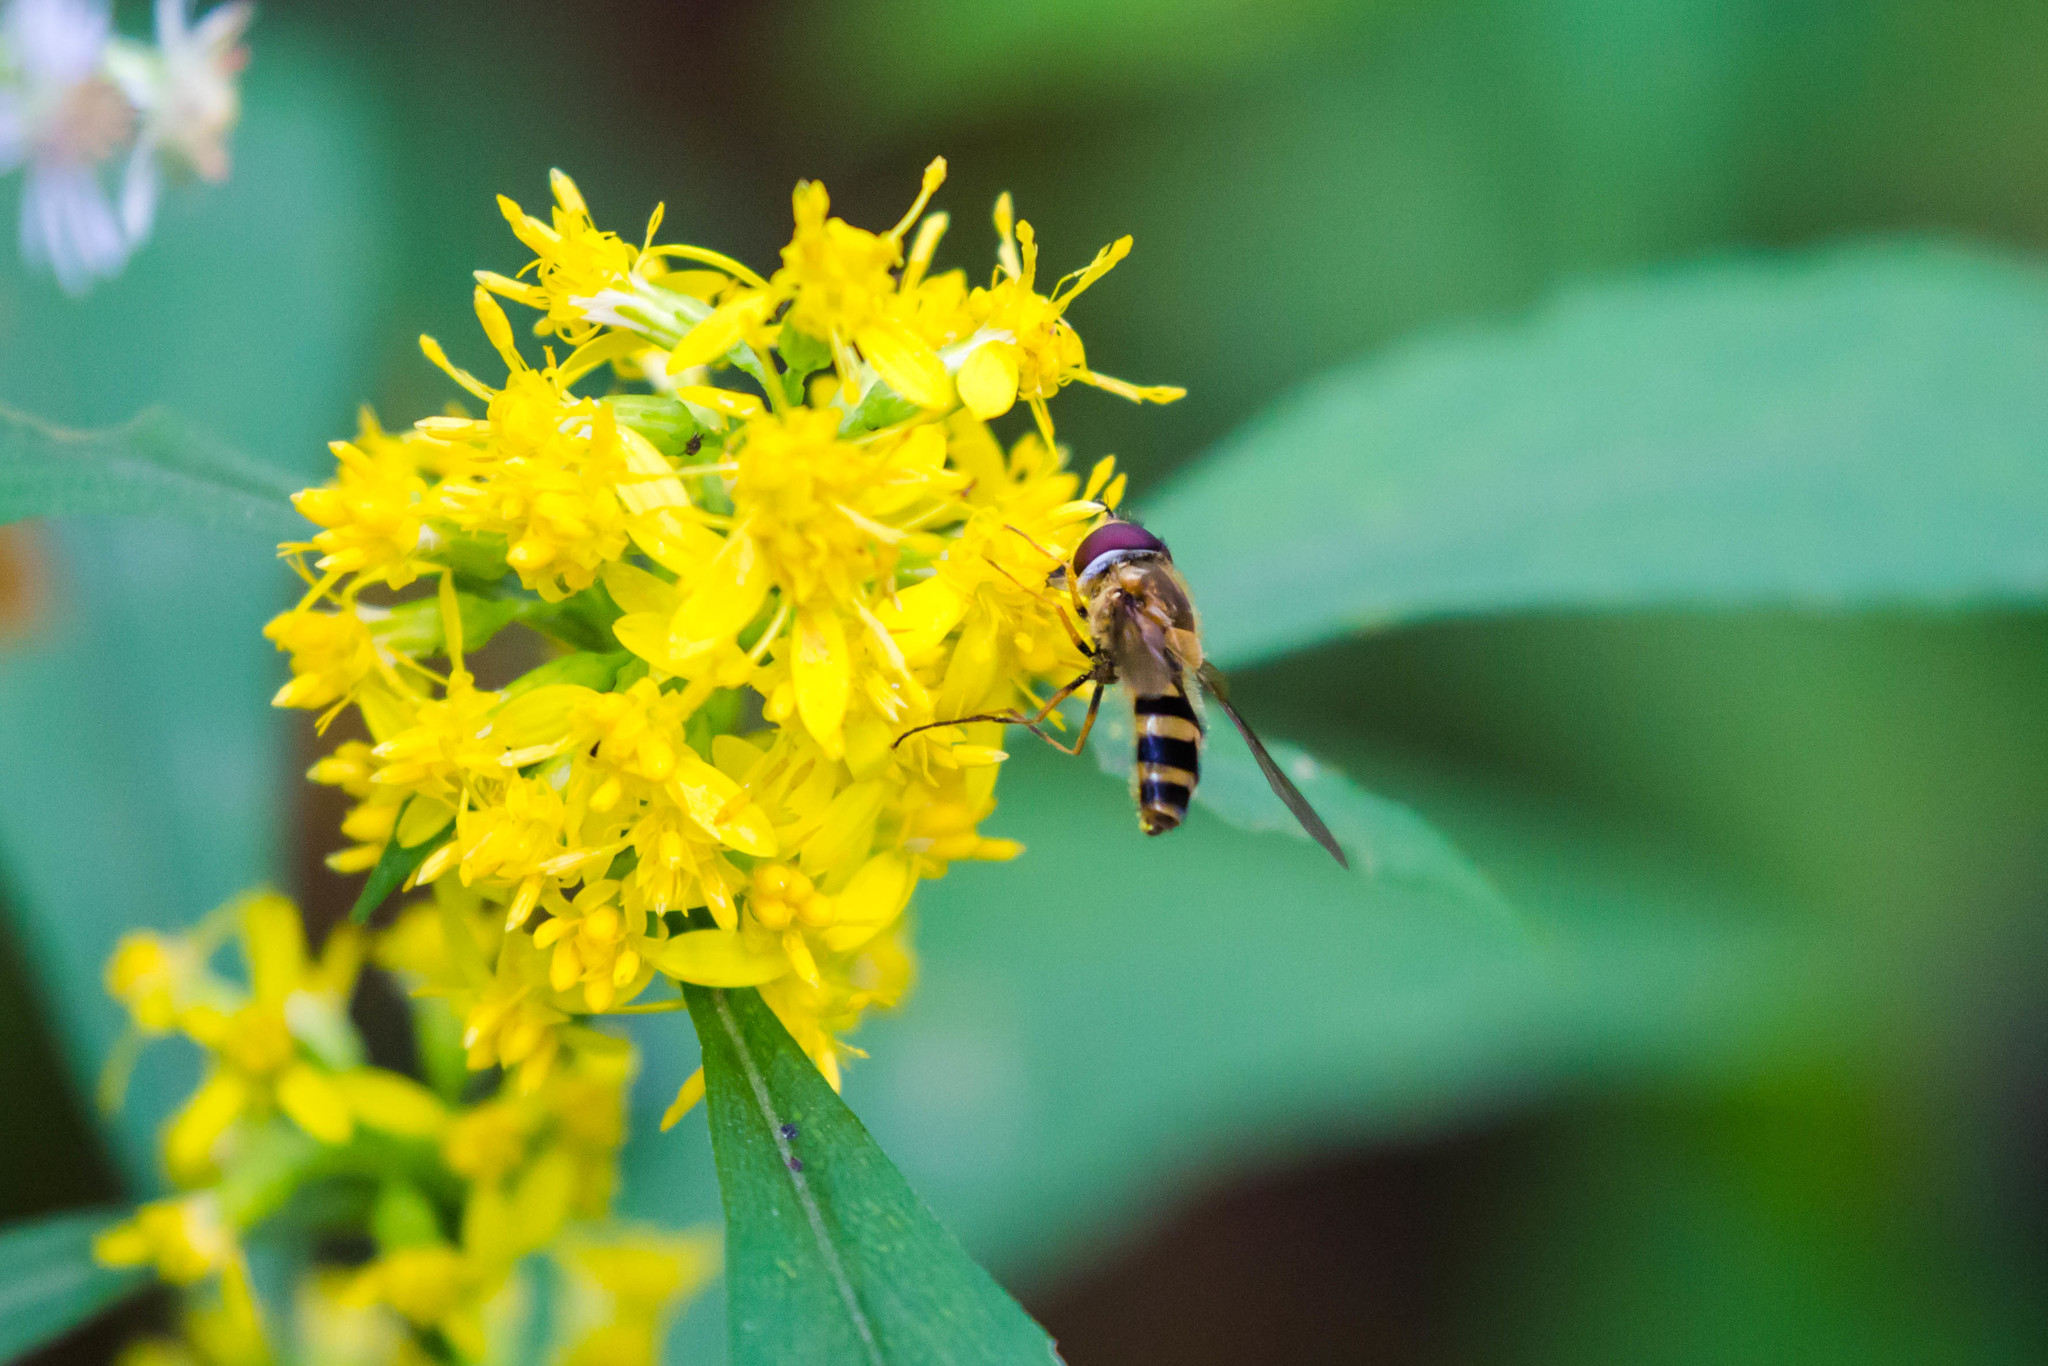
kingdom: Animalia
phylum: Arthropoda
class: Insecta
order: Diptera
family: Syrphidae
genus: Epistrophe
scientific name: Epistrophe grossulariae
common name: Black-horned smoothtail
